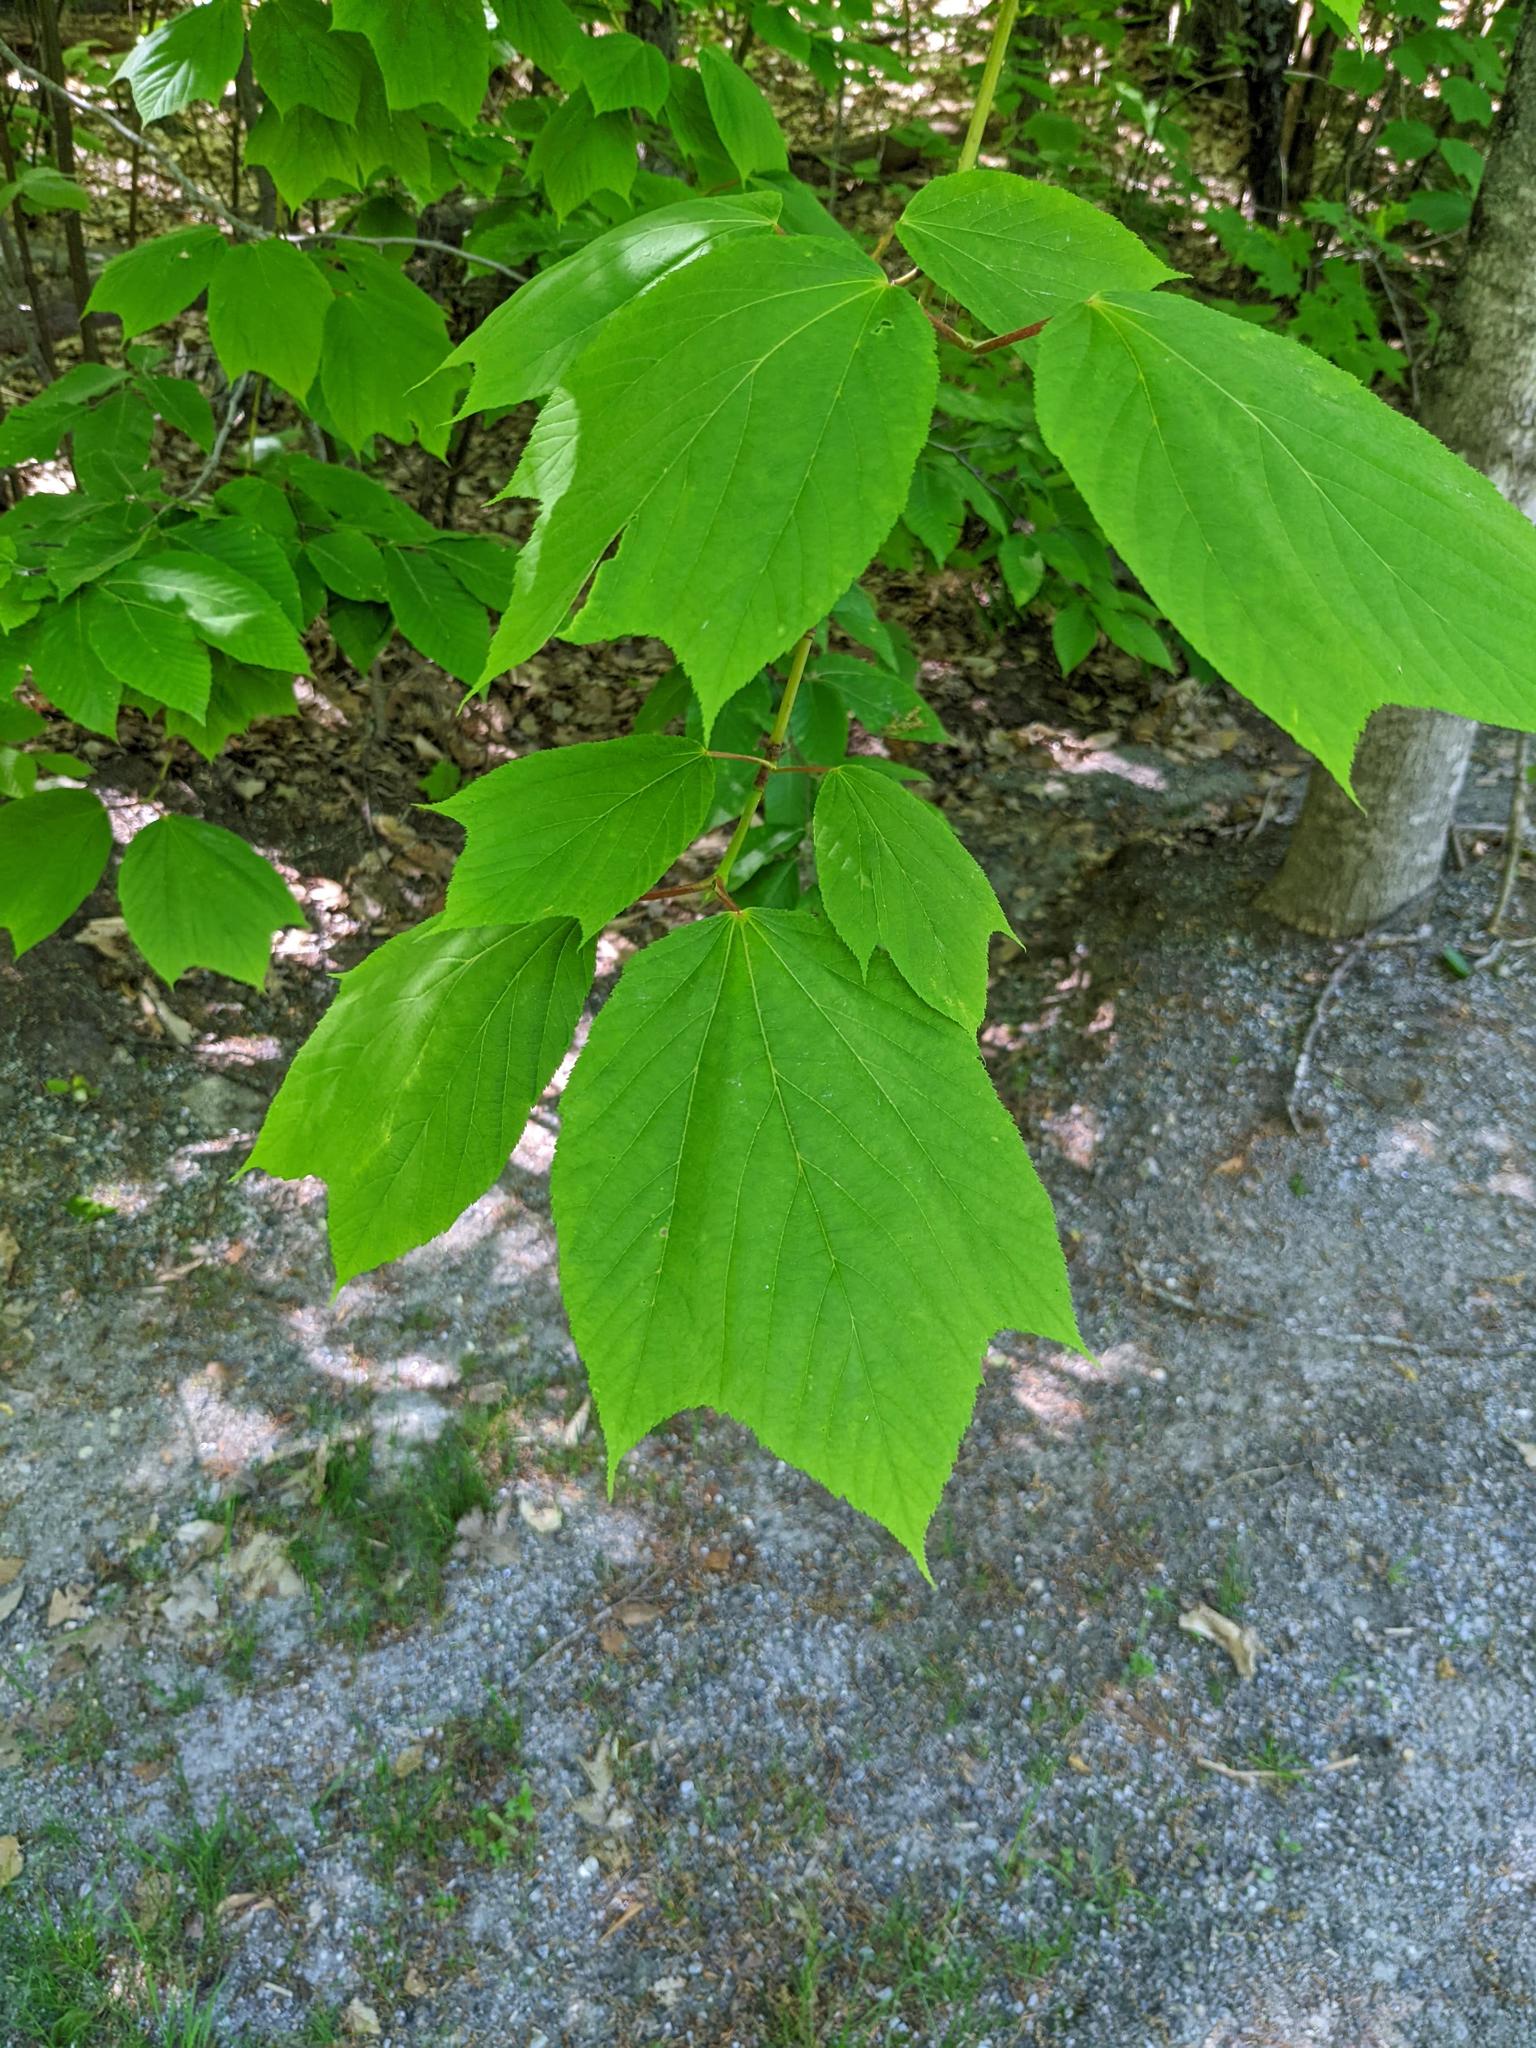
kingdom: Plantae
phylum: Tracheophyta
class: Magnoliopsida
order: Sapindales
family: Sapindaceae
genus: Acer
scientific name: Acer pensylvanicum
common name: Moosewood
